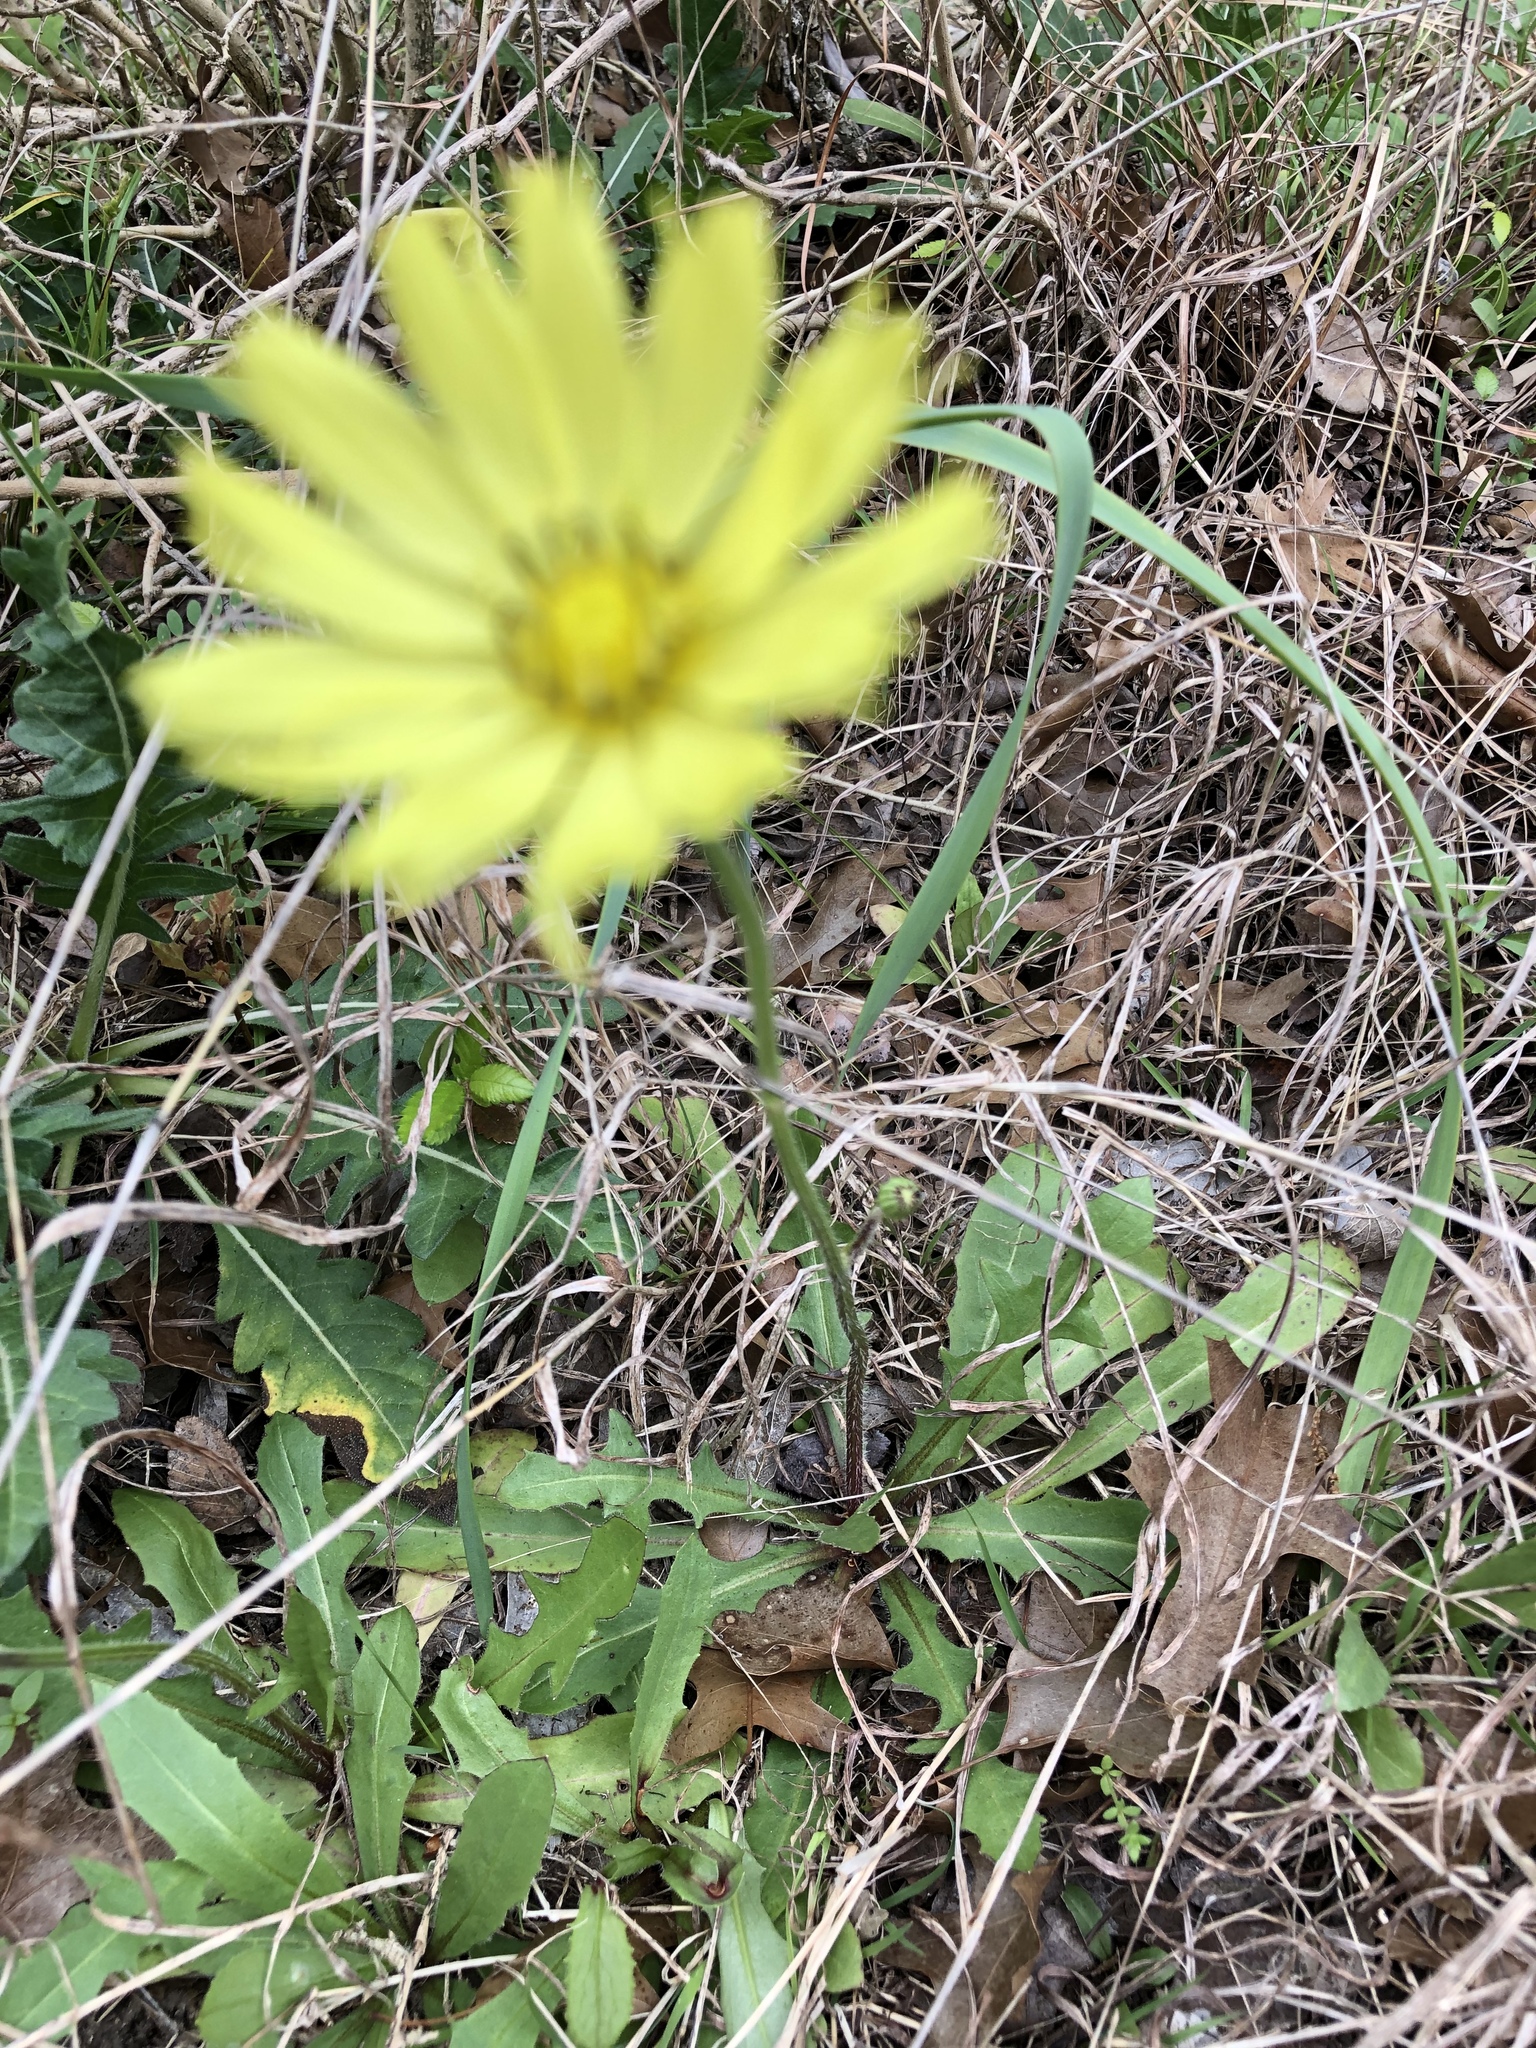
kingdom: Plantae
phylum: Tracheophyta
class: Magnoliopsida
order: Asterales
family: Asteraceae
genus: Pyrrhopappus
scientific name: Pyrrhopappus pauciflorus
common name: Texas false dandelion
